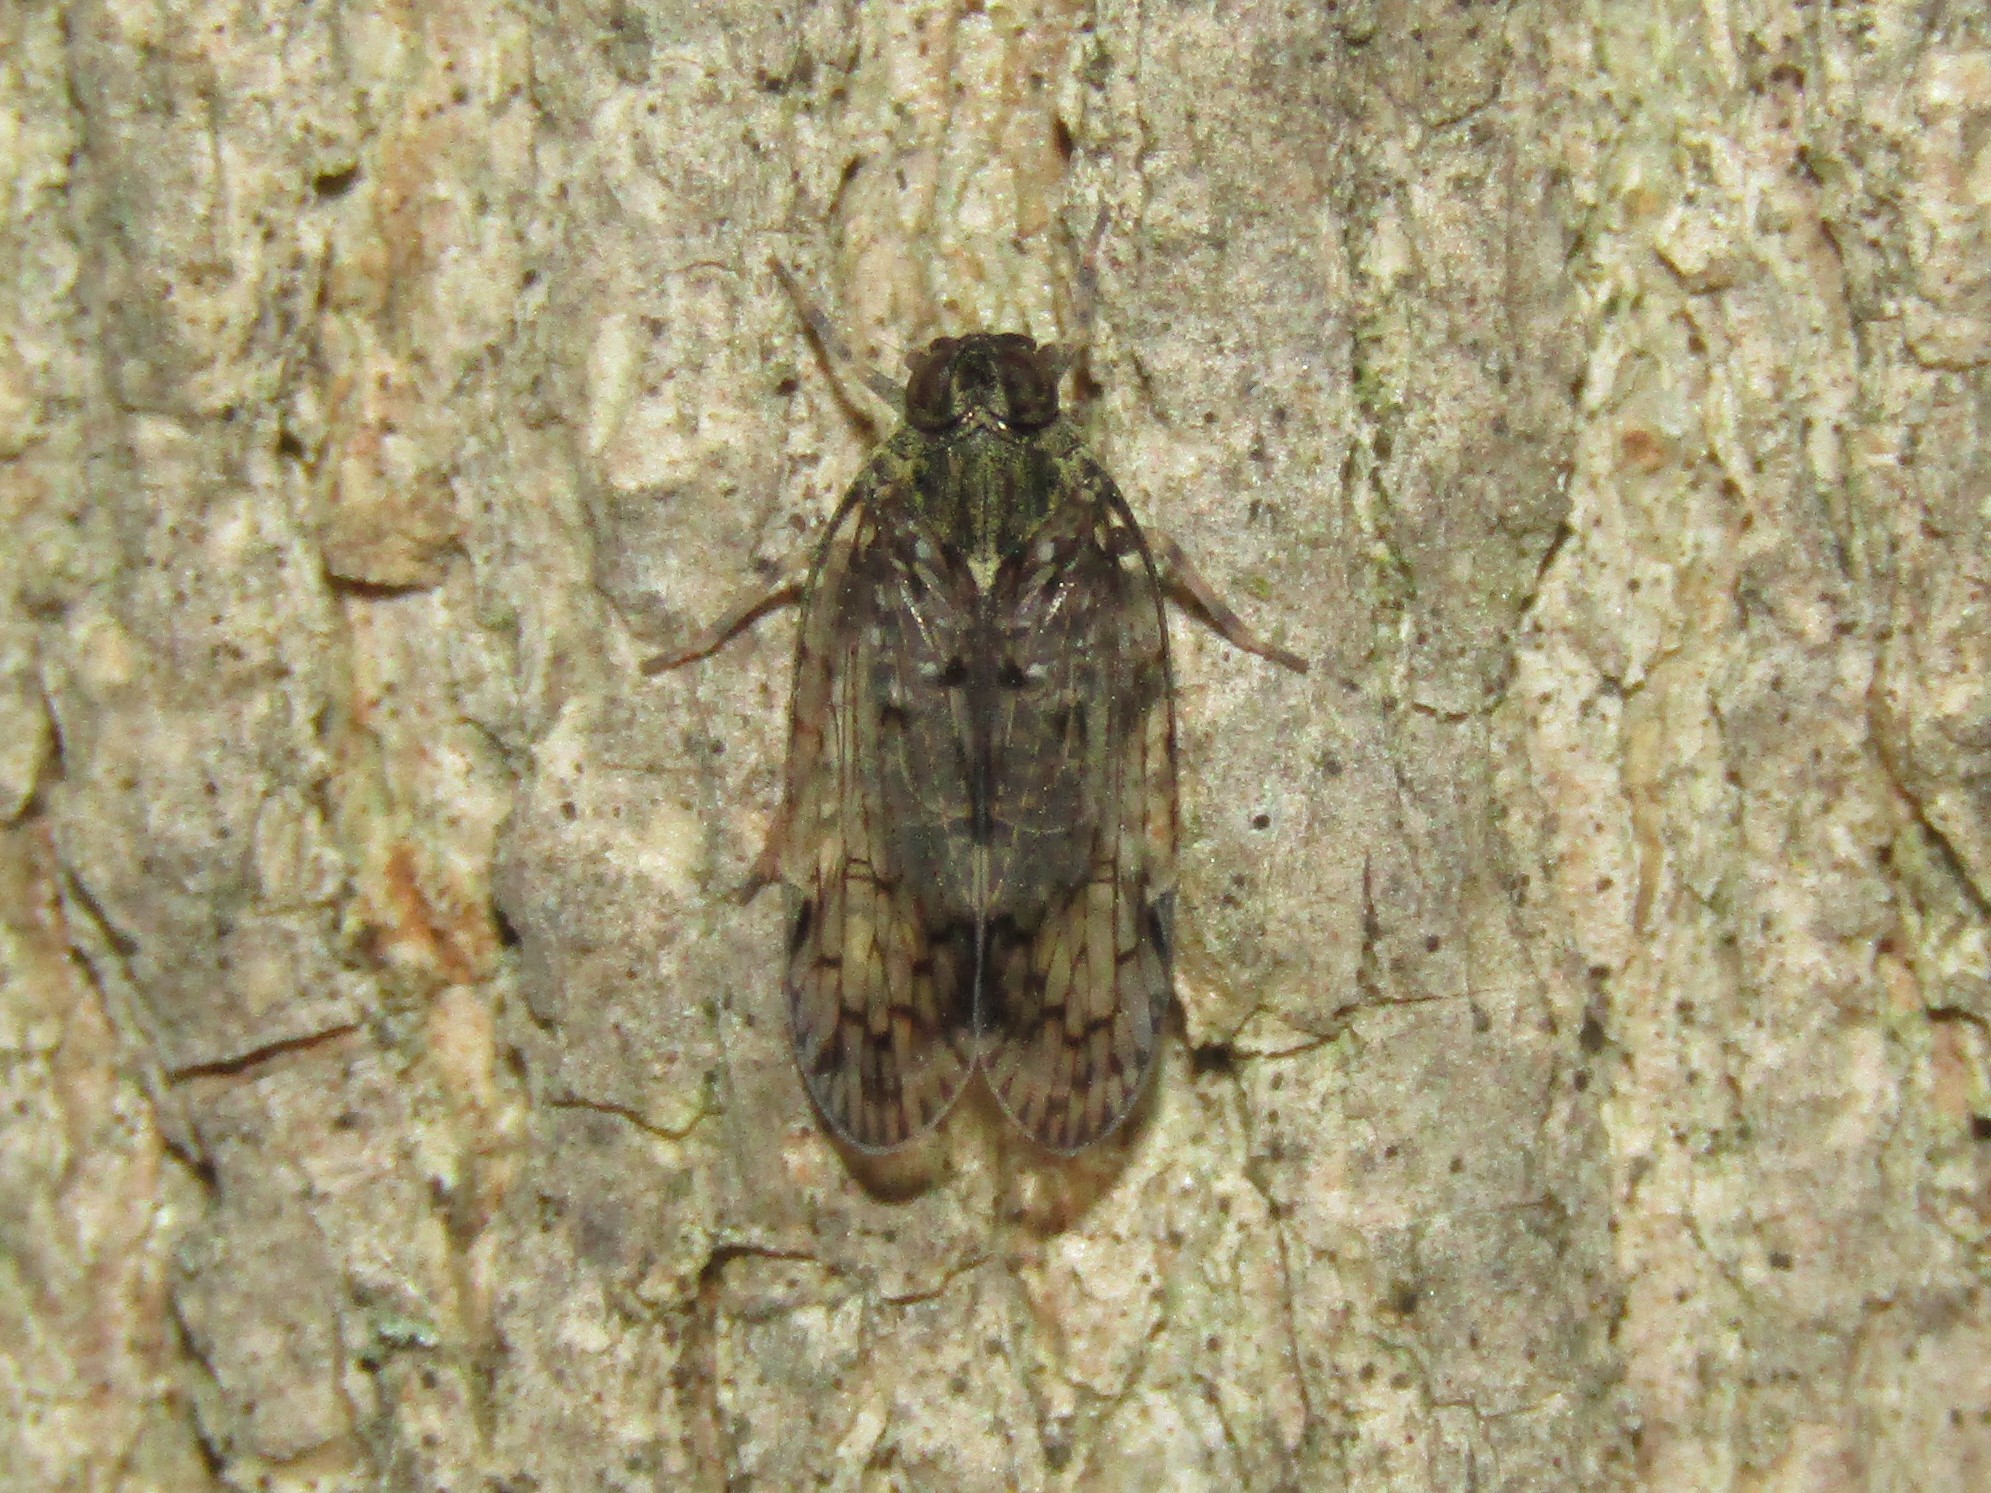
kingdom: Animalia
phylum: Arthropoda
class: Insecta
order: Hemiptera
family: Cixiidae
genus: Melanoliarus
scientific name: Melanoliarus placitus
